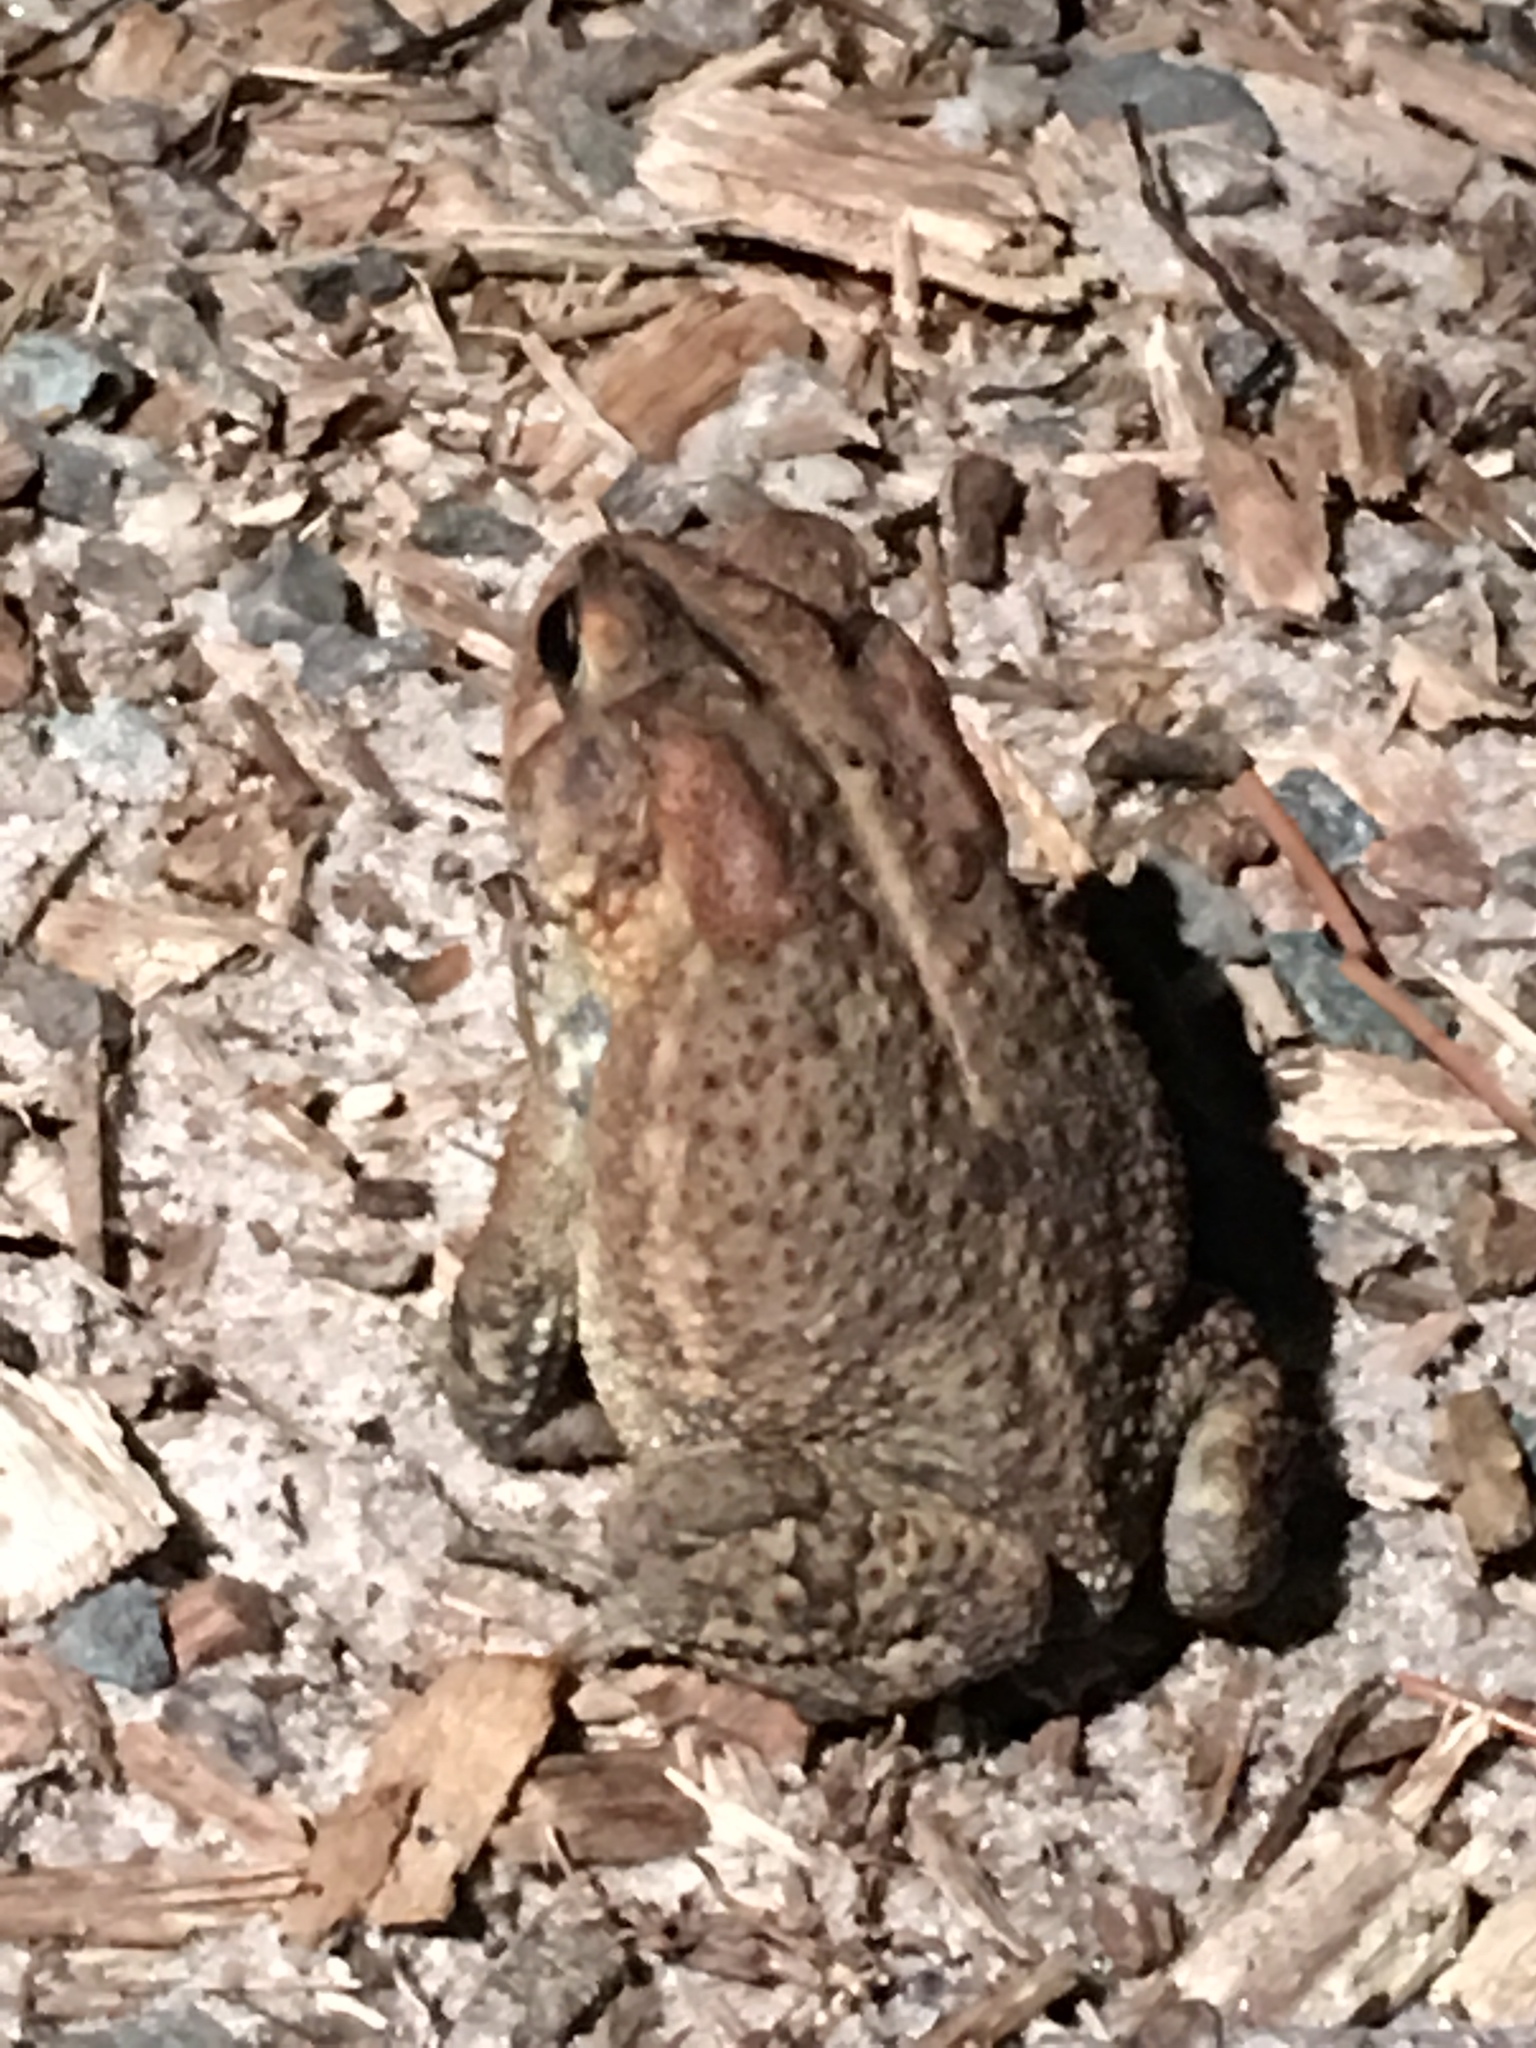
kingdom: Animalia
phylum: Chordata
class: Amphibia
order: Anura
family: Bufonidae
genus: Anaxyrus
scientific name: Anaxyrus terrestris
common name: Southern toad
